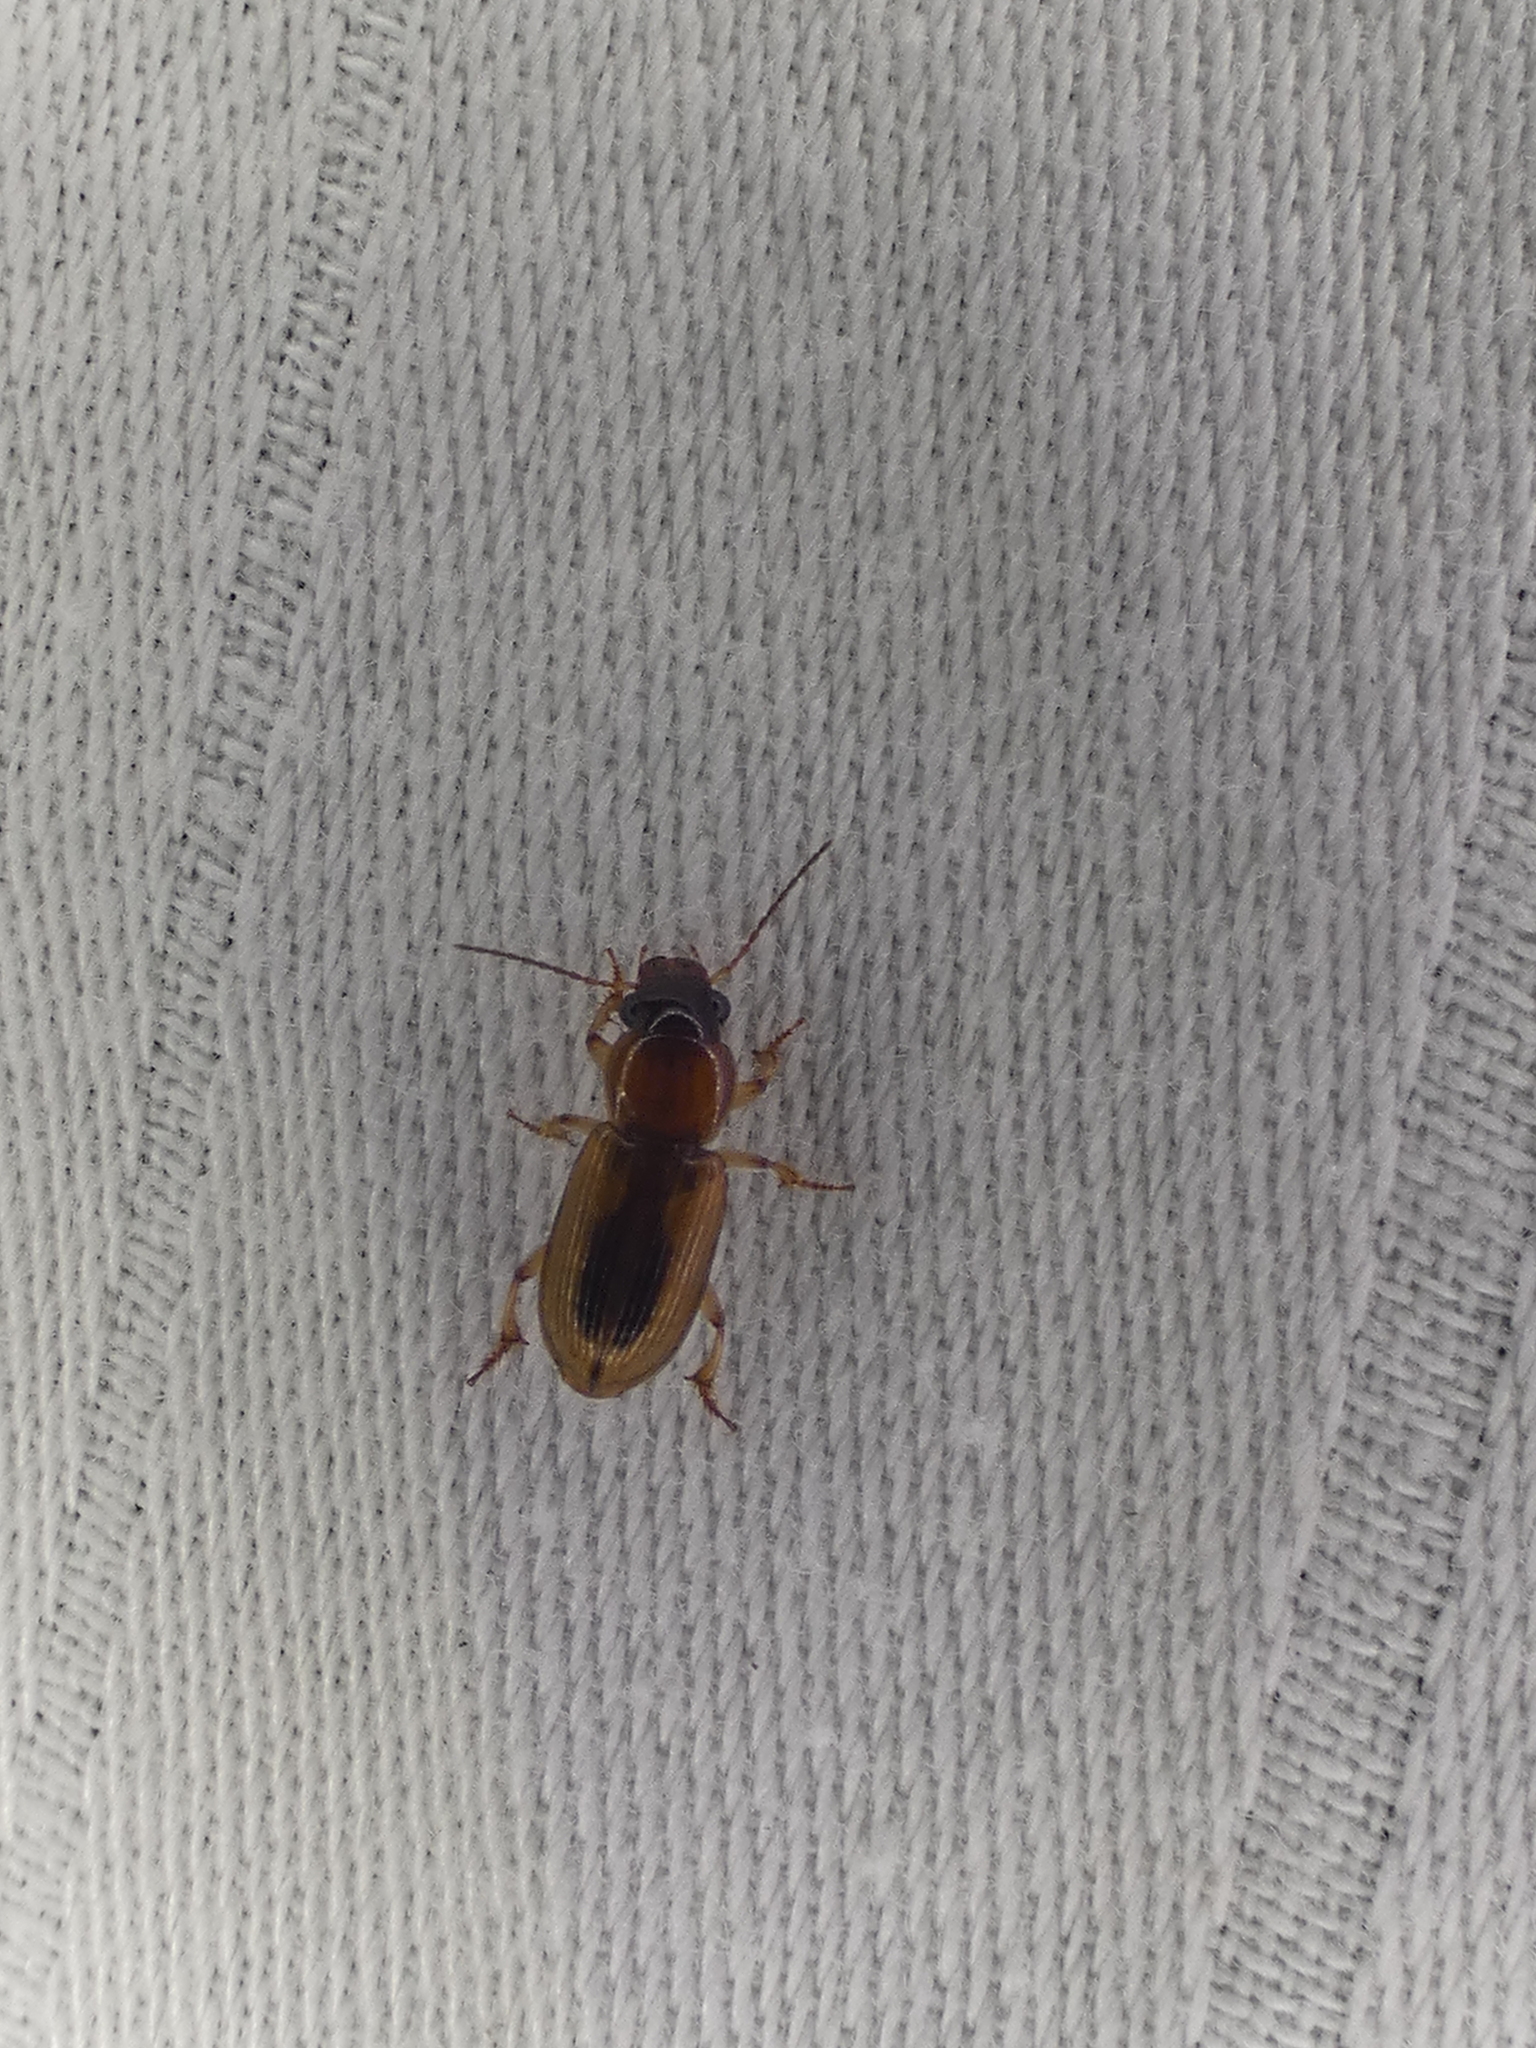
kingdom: Animalia
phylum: Arthropoda
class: Insecta
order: Coleoptera
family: Carabidae
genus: Stenolophus
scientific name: Stenolophus lecontei
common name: Leconte's seedcorn beetle
